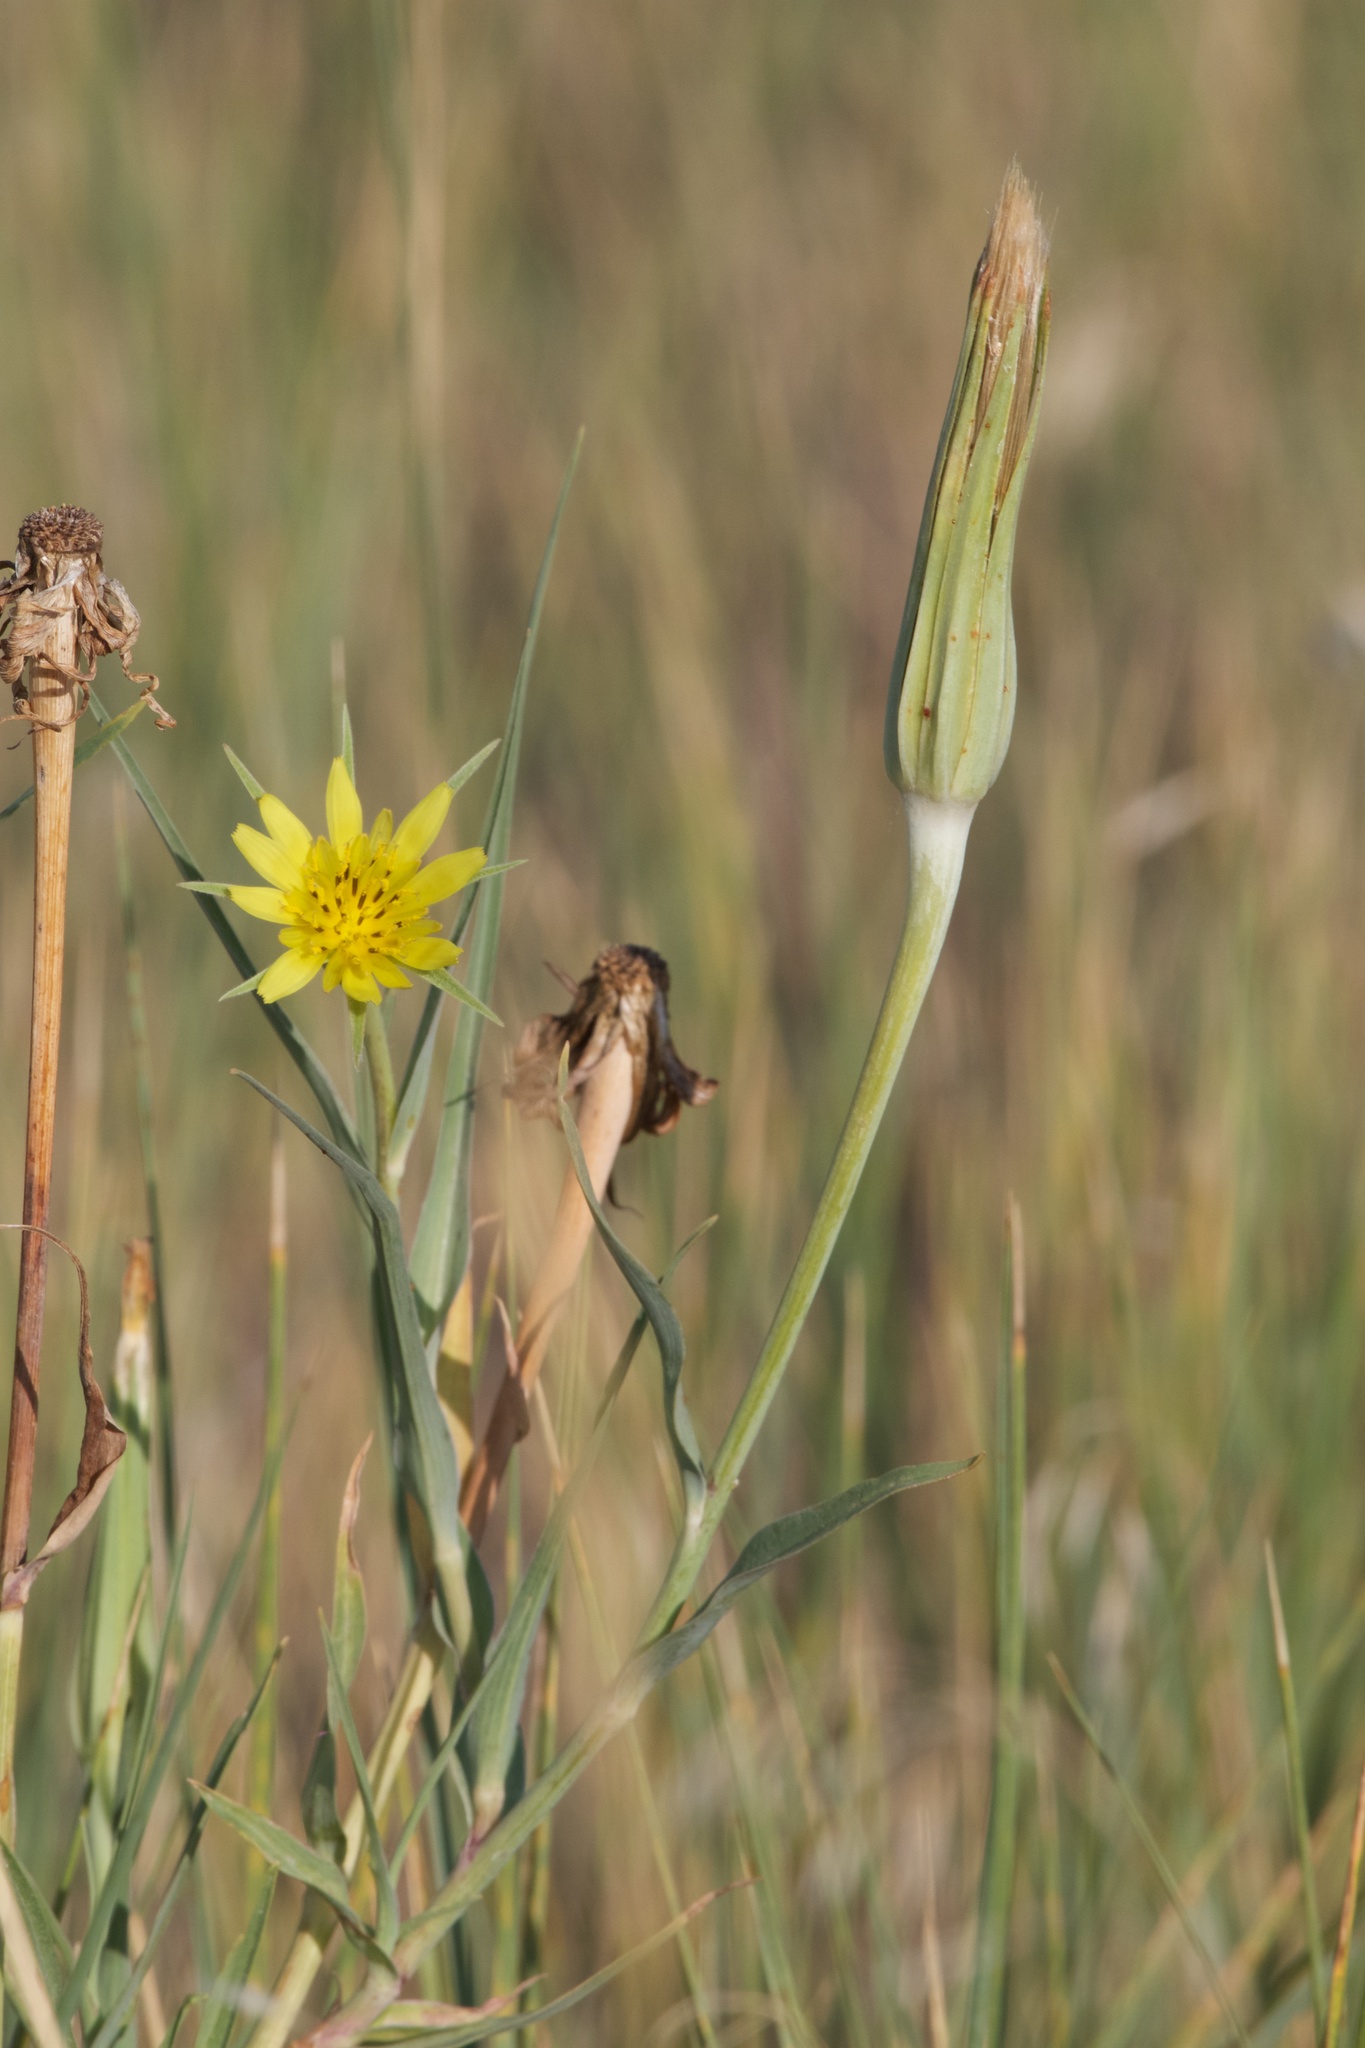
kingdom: Plantae
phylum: Tracheophyta
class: Magnoliopsida
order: Asterales
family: Asteraceae
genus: Tragopogon
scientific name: Tragopogon dubius
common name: Yellow salsify
